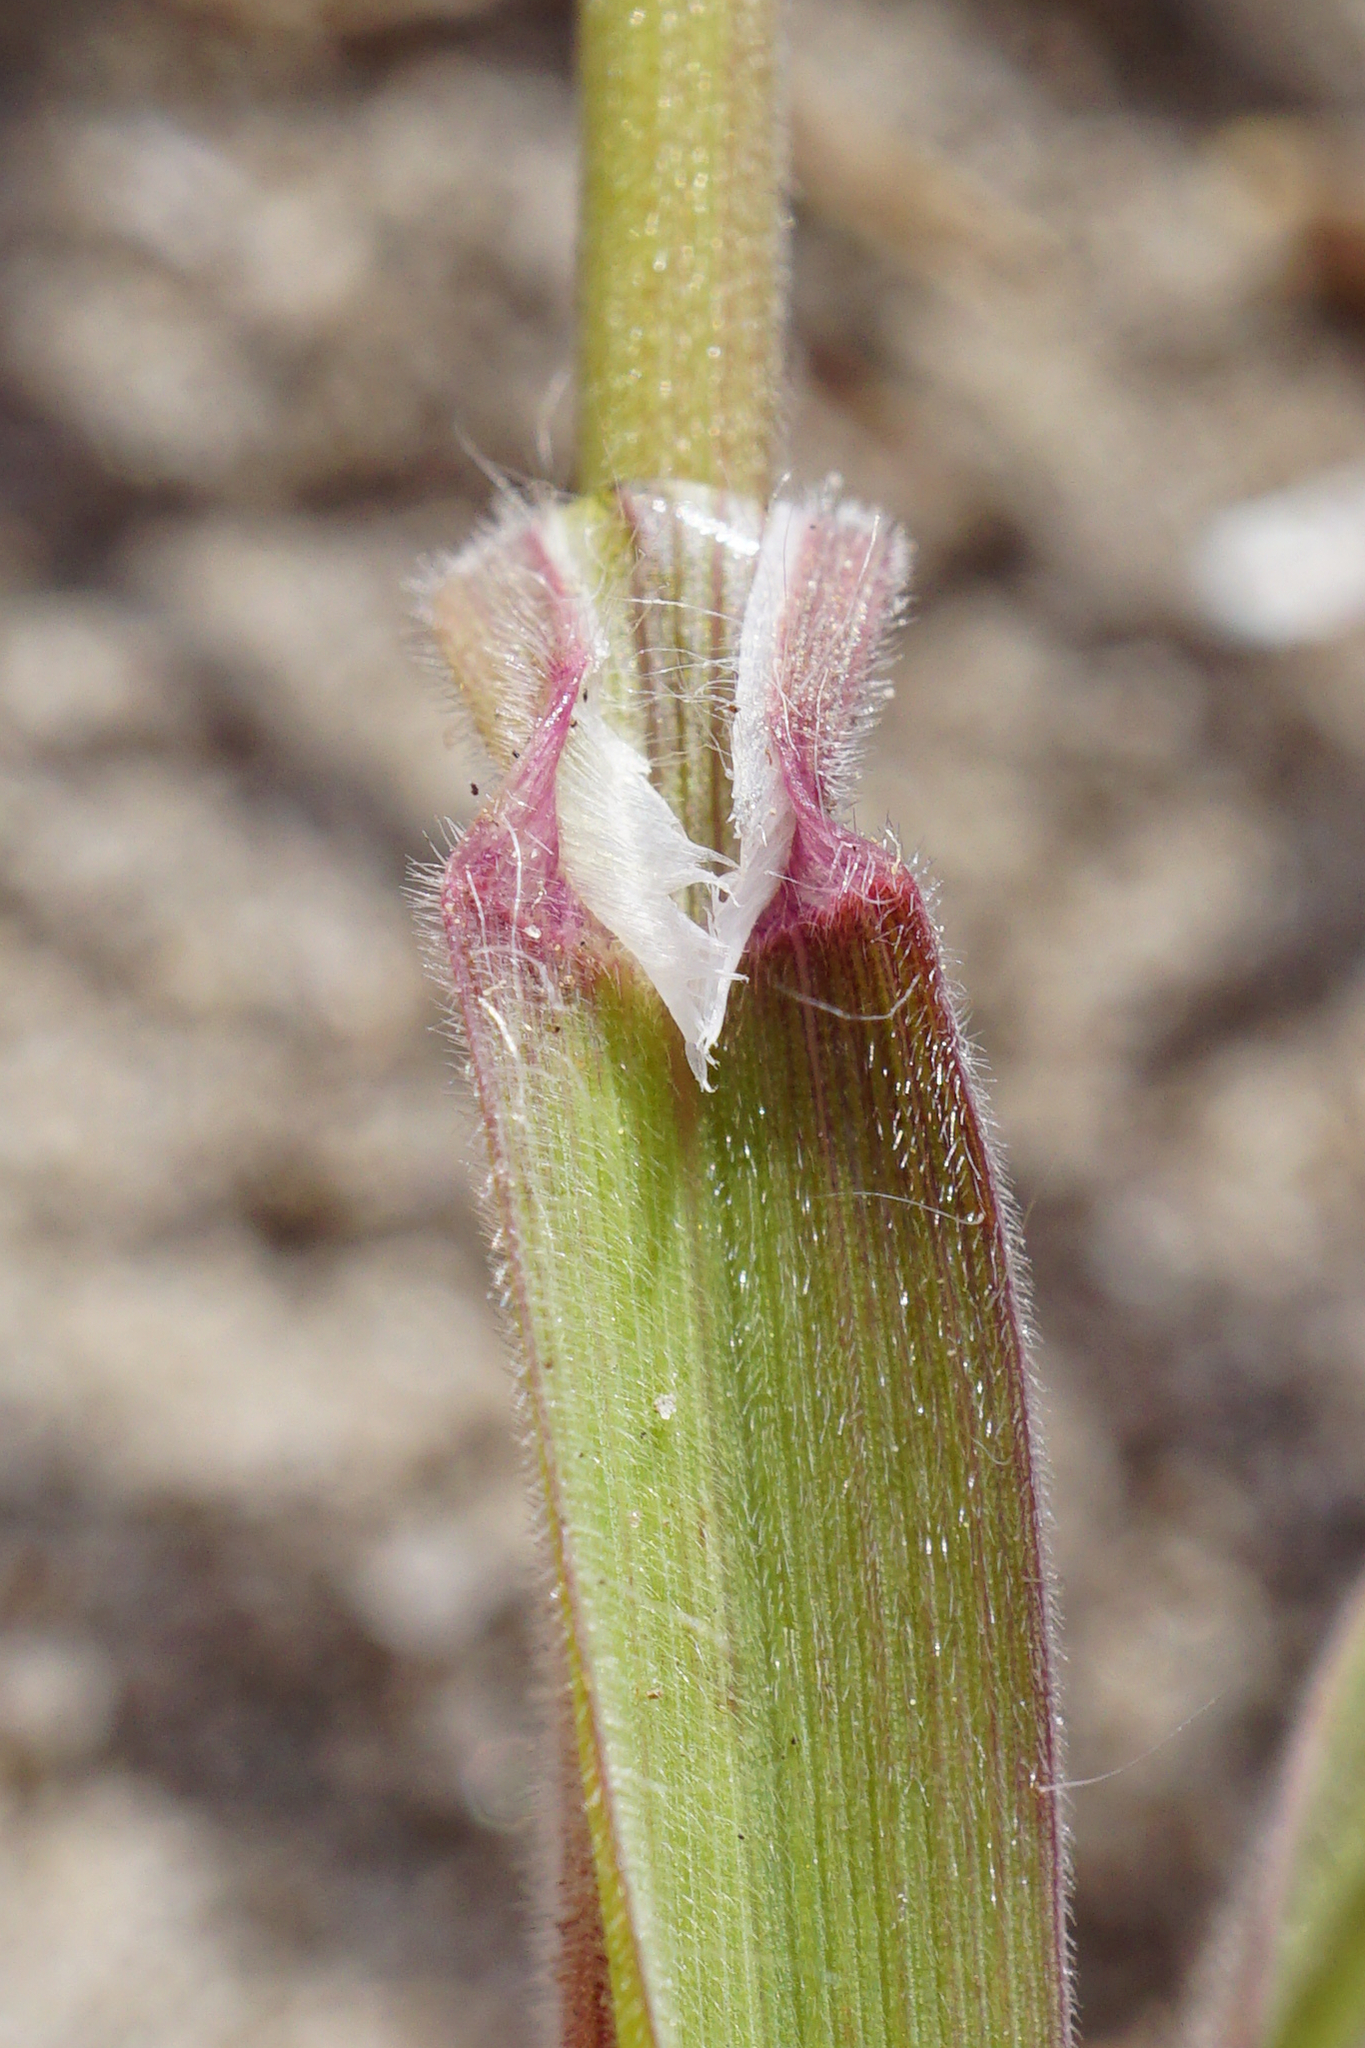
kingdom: Plantae
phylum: Tracheophyta
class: Liliopsida
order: Poales
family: Poaceae
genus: Bromus
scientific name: Bromus tectorum
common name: Cheatgrass
